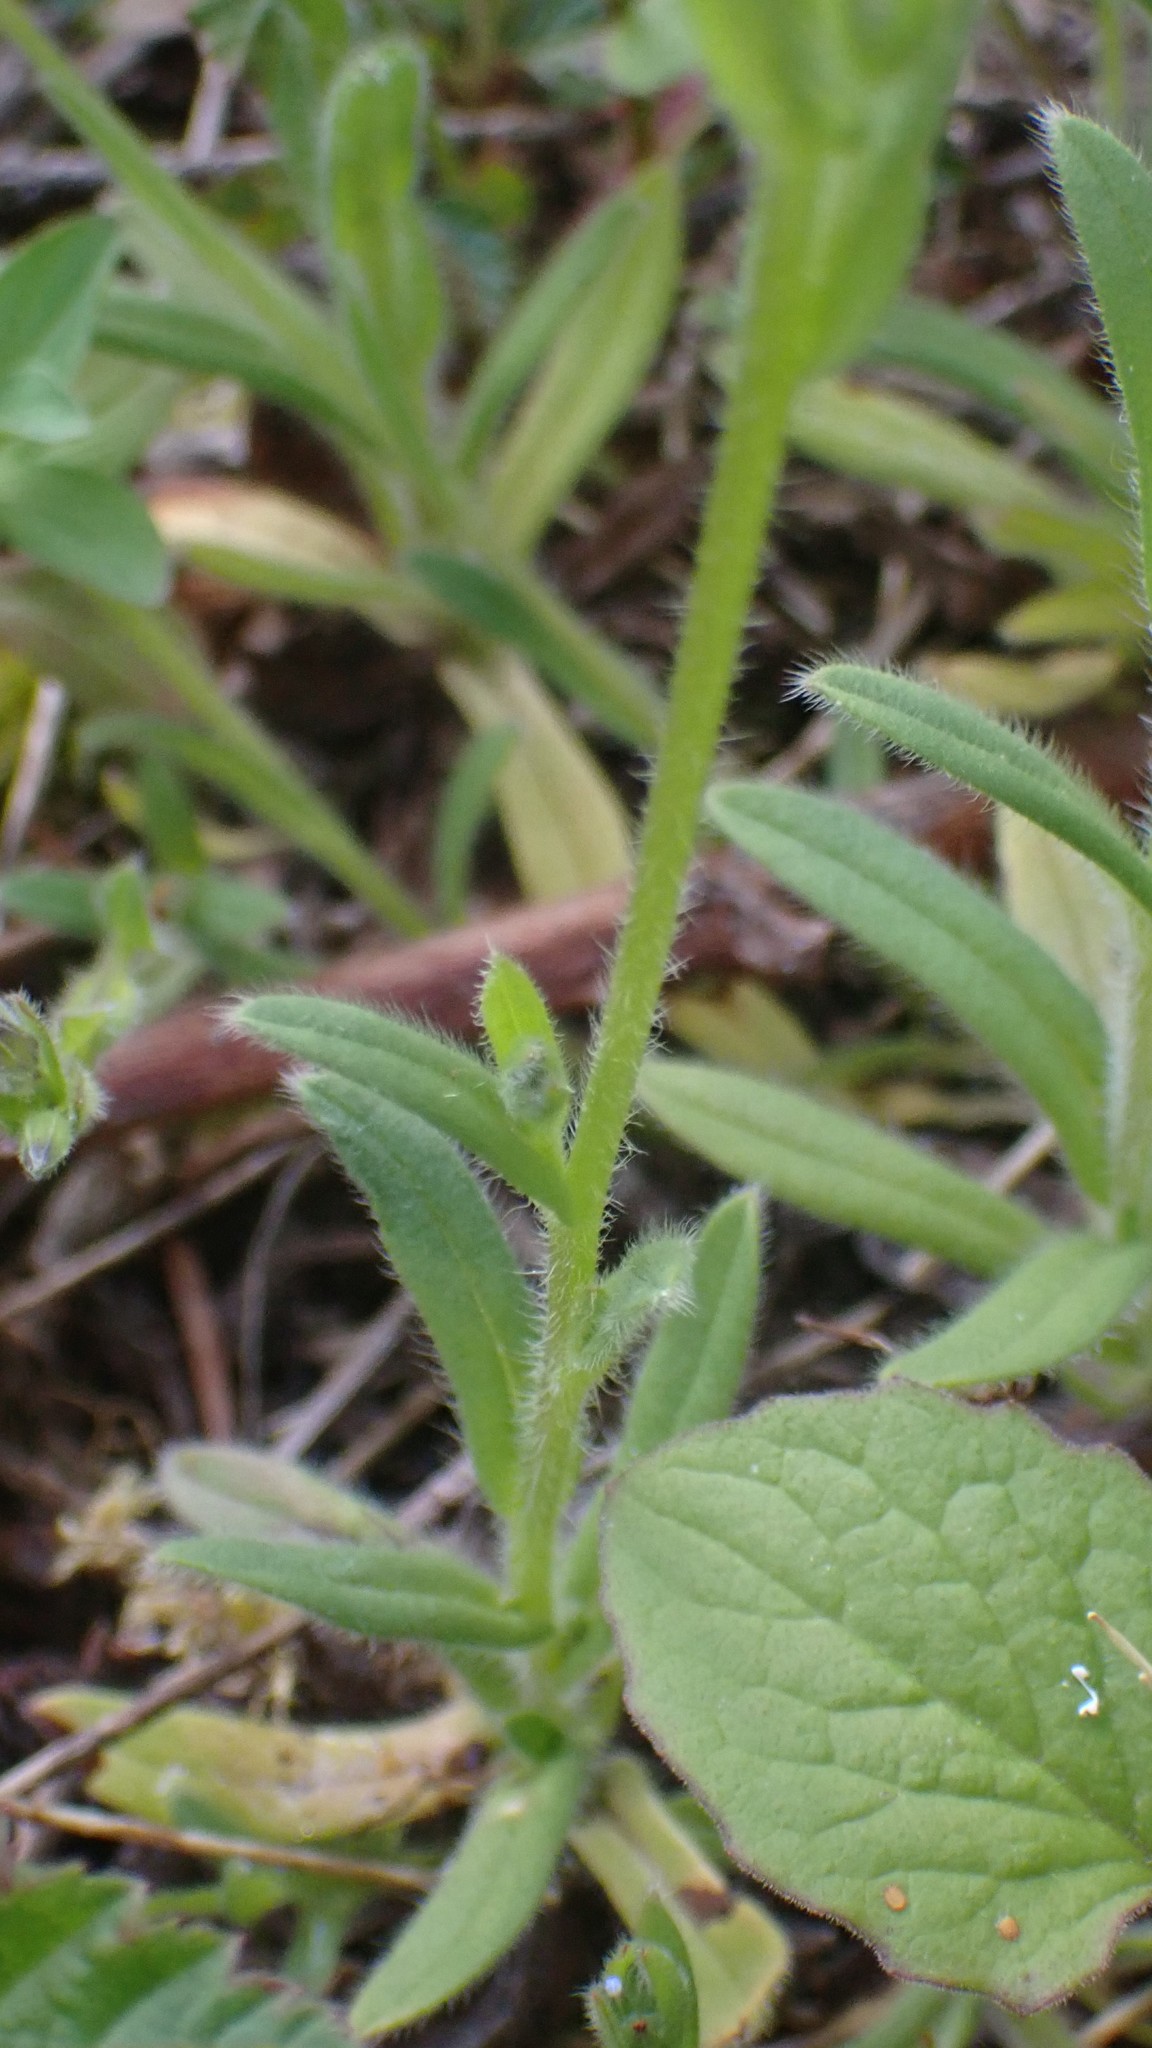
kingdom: Plantae
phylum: Tracheophyta
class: Magnoliopsida
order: Boraginales
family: Boraginaceae
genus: Myosotis
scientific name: Myosotis discolor
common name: Changing forget-me-not
